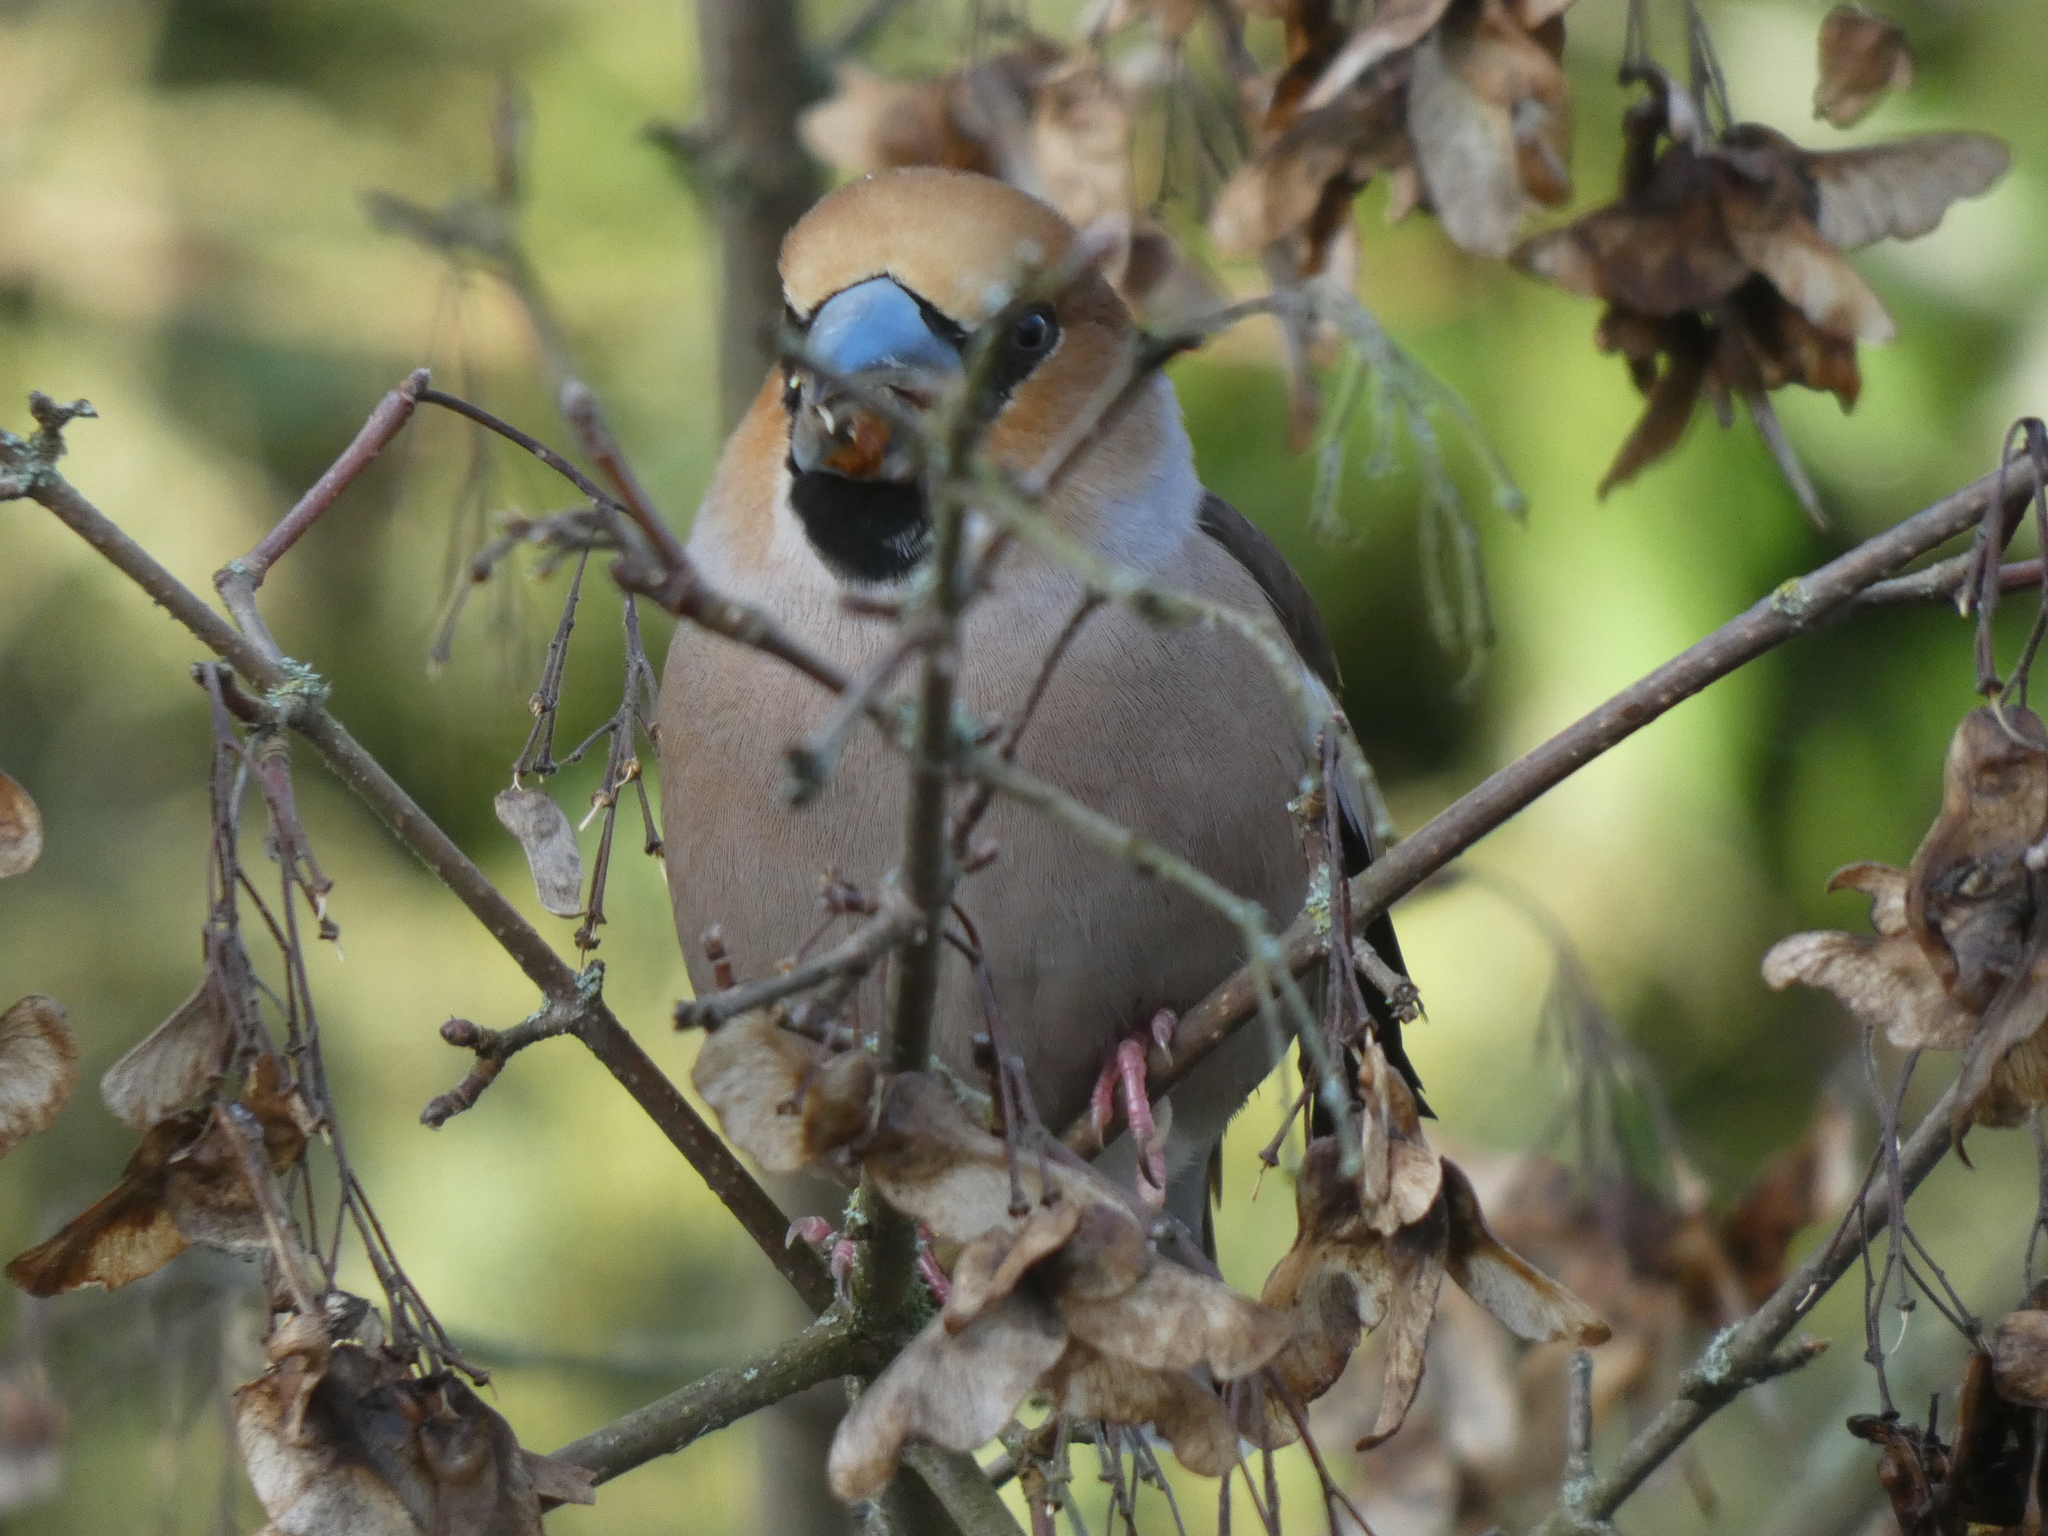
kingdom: Animalia
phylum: Chordata
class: Aves
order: Passeriformes
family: Fringillidae
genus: Coccothraustes
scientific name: Coccothraustes coccothraustes
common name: Hawfinch
